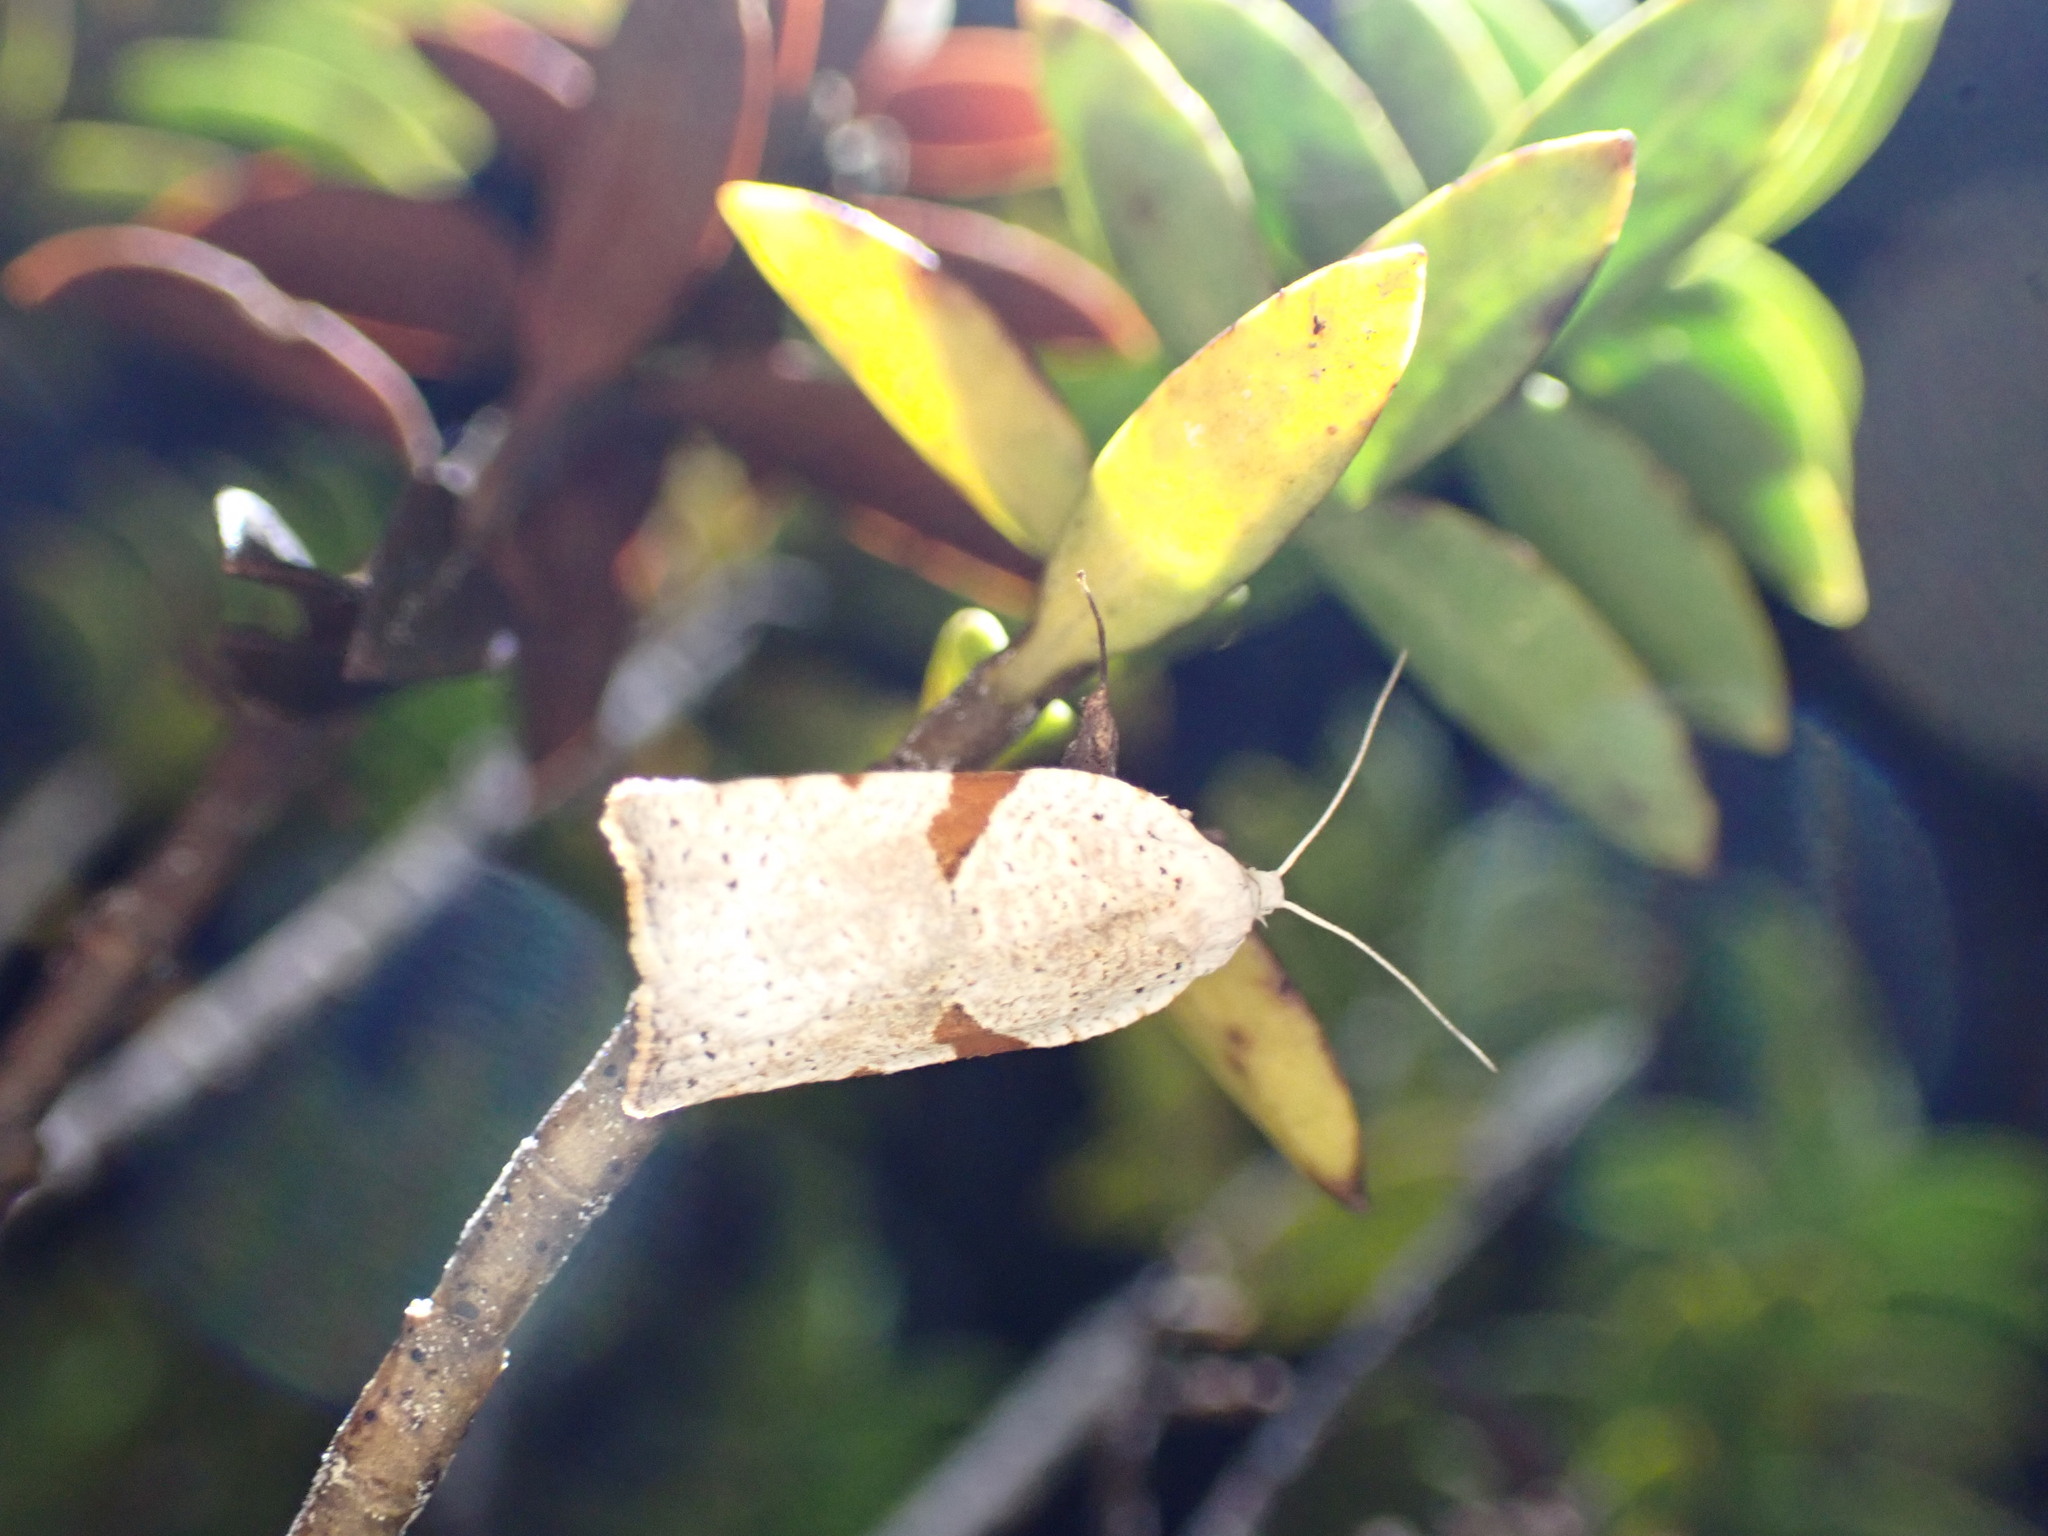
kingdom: Animalia
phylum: Arthropoda
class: Insecta
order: Lepidoptera
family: Tortricidae
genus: Leucotenes
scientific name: Leucotenes coprosmae
